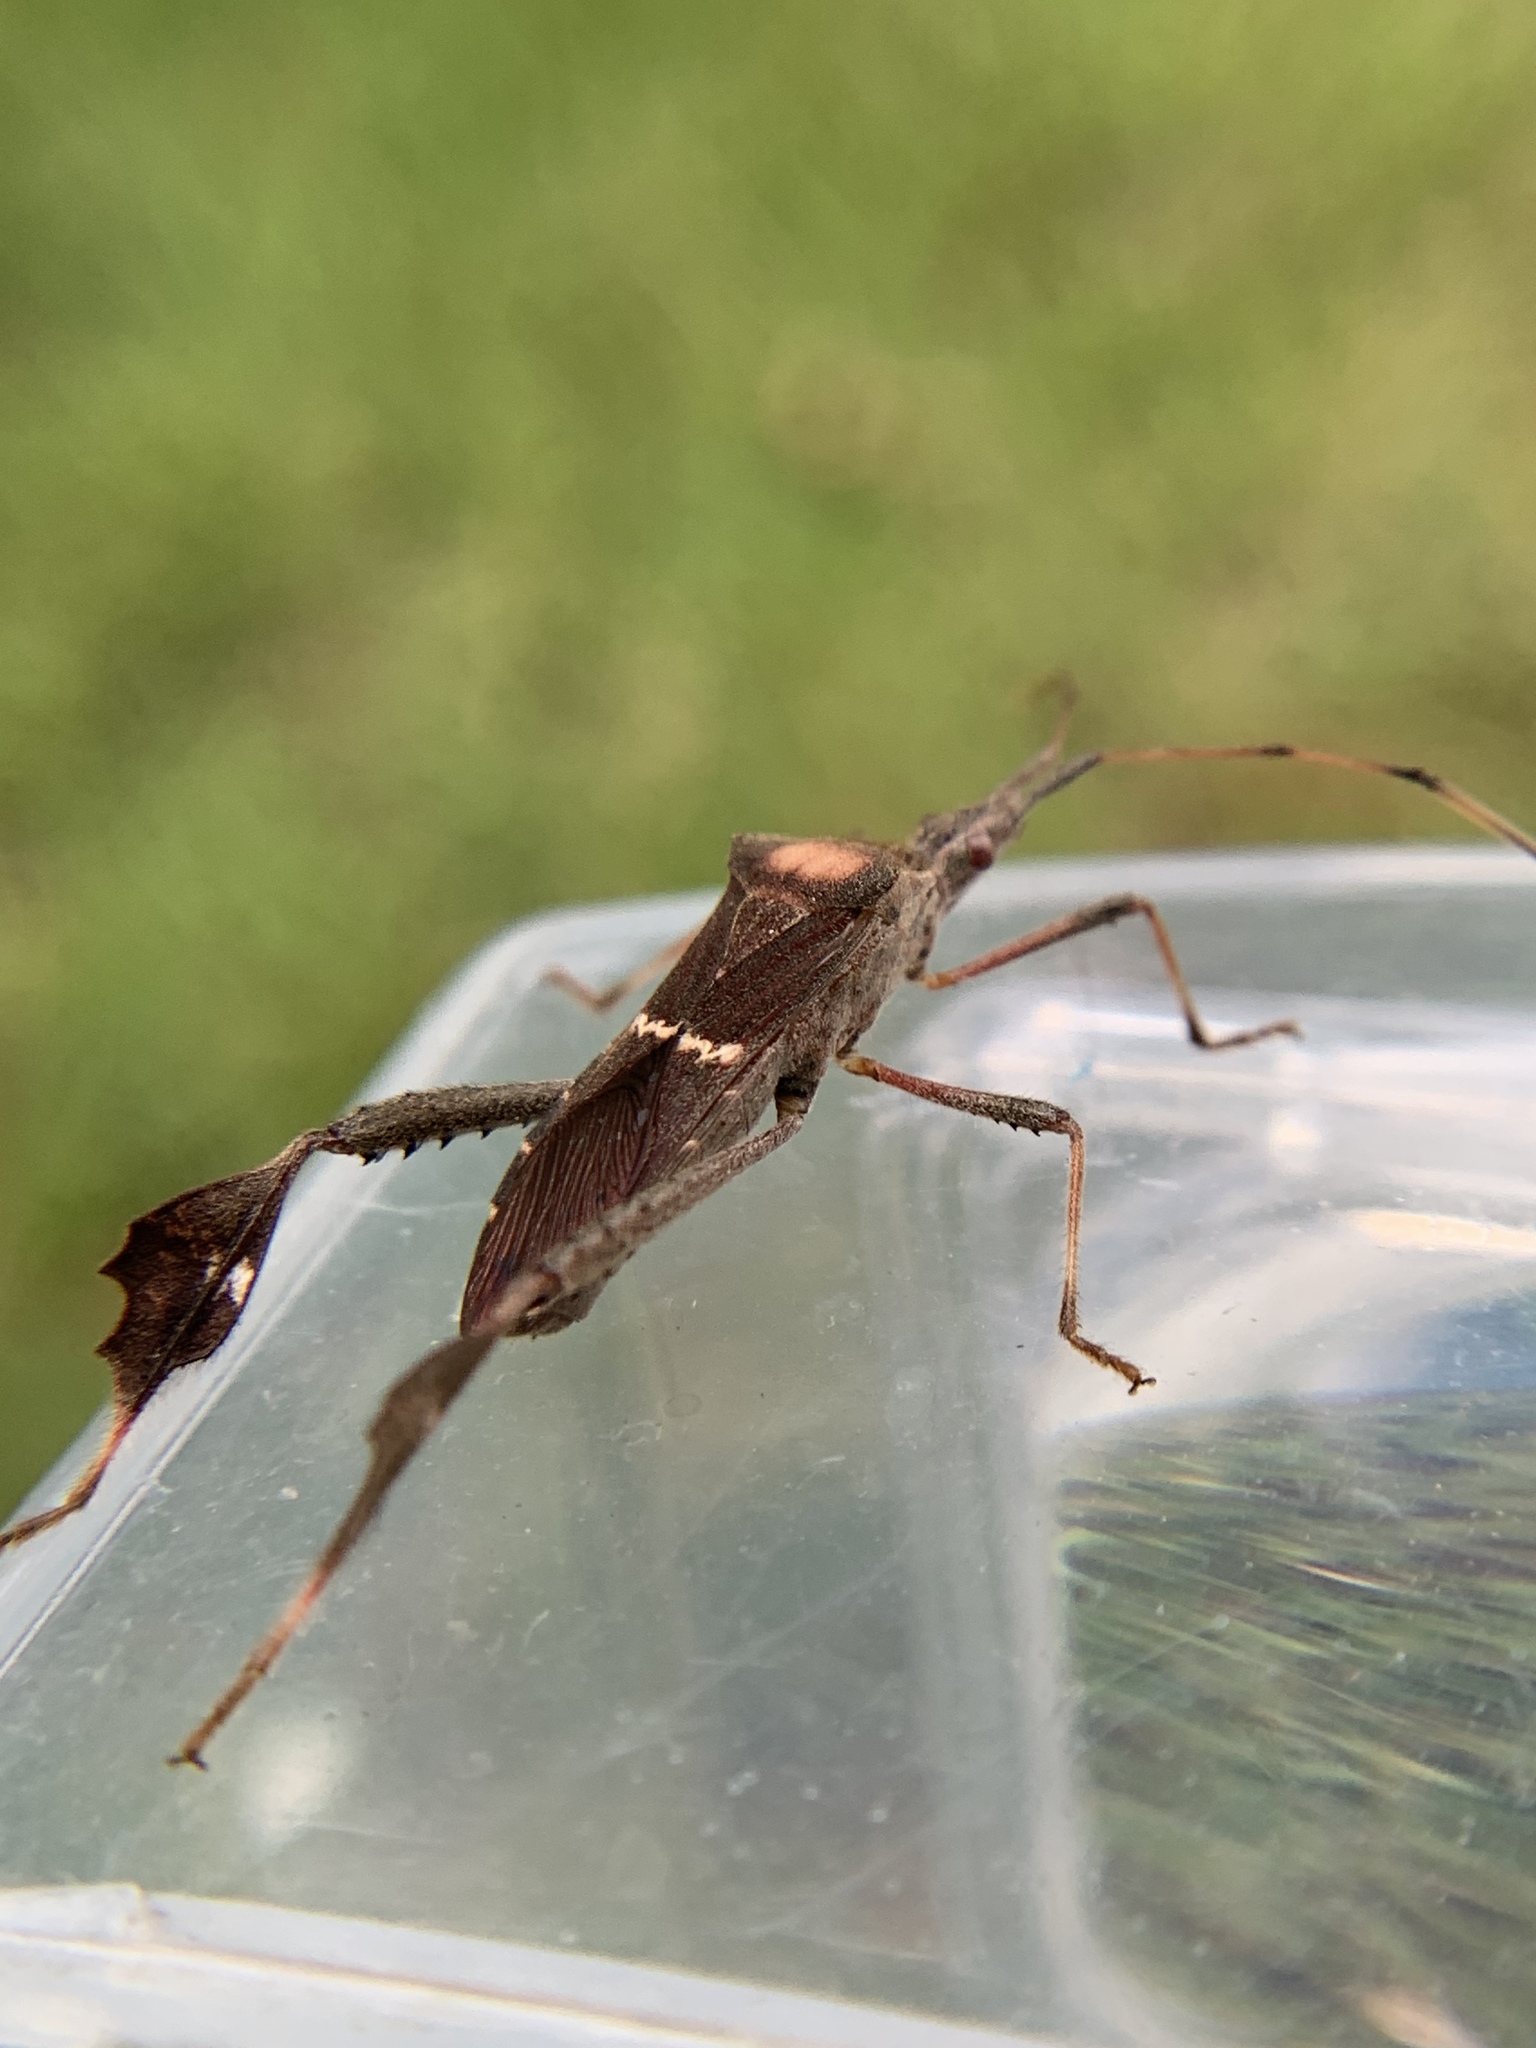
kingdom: Animalia
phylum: Arthropoda
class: Insecta
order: Hemiptera
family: Coreidae
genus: Leptoglossus
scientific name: Leptoglossus concolor
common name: Leaf-footed bug
